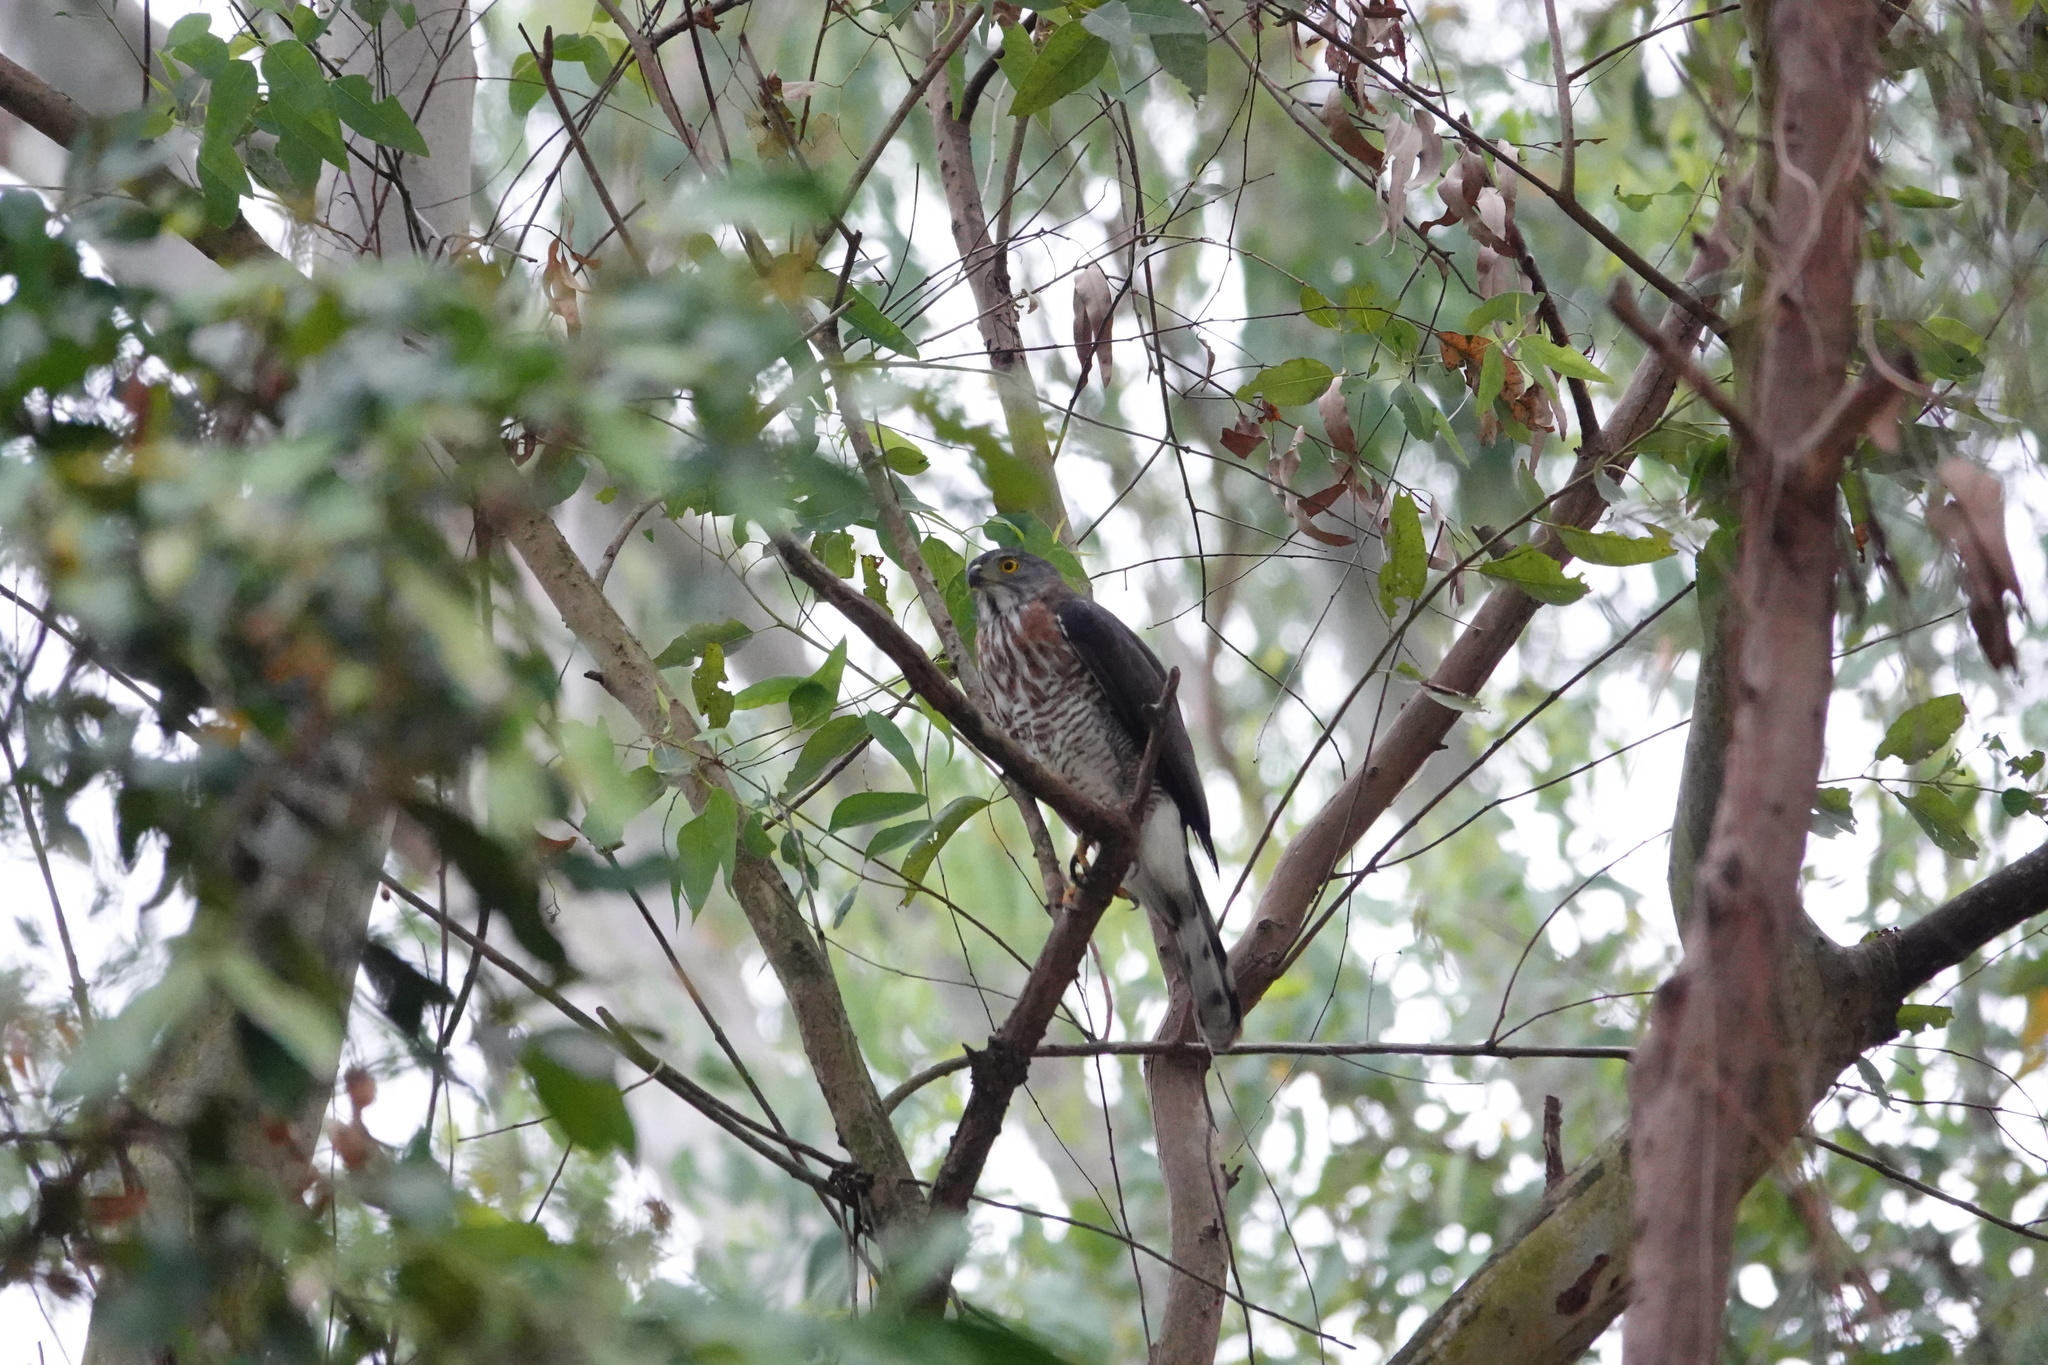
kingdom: Animalia
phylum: Chordata
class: Aves
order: Accipitriformes
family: Accipitridae
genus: Accipiter
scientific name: Accipiter trivirgatus
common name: Crested goshawk
